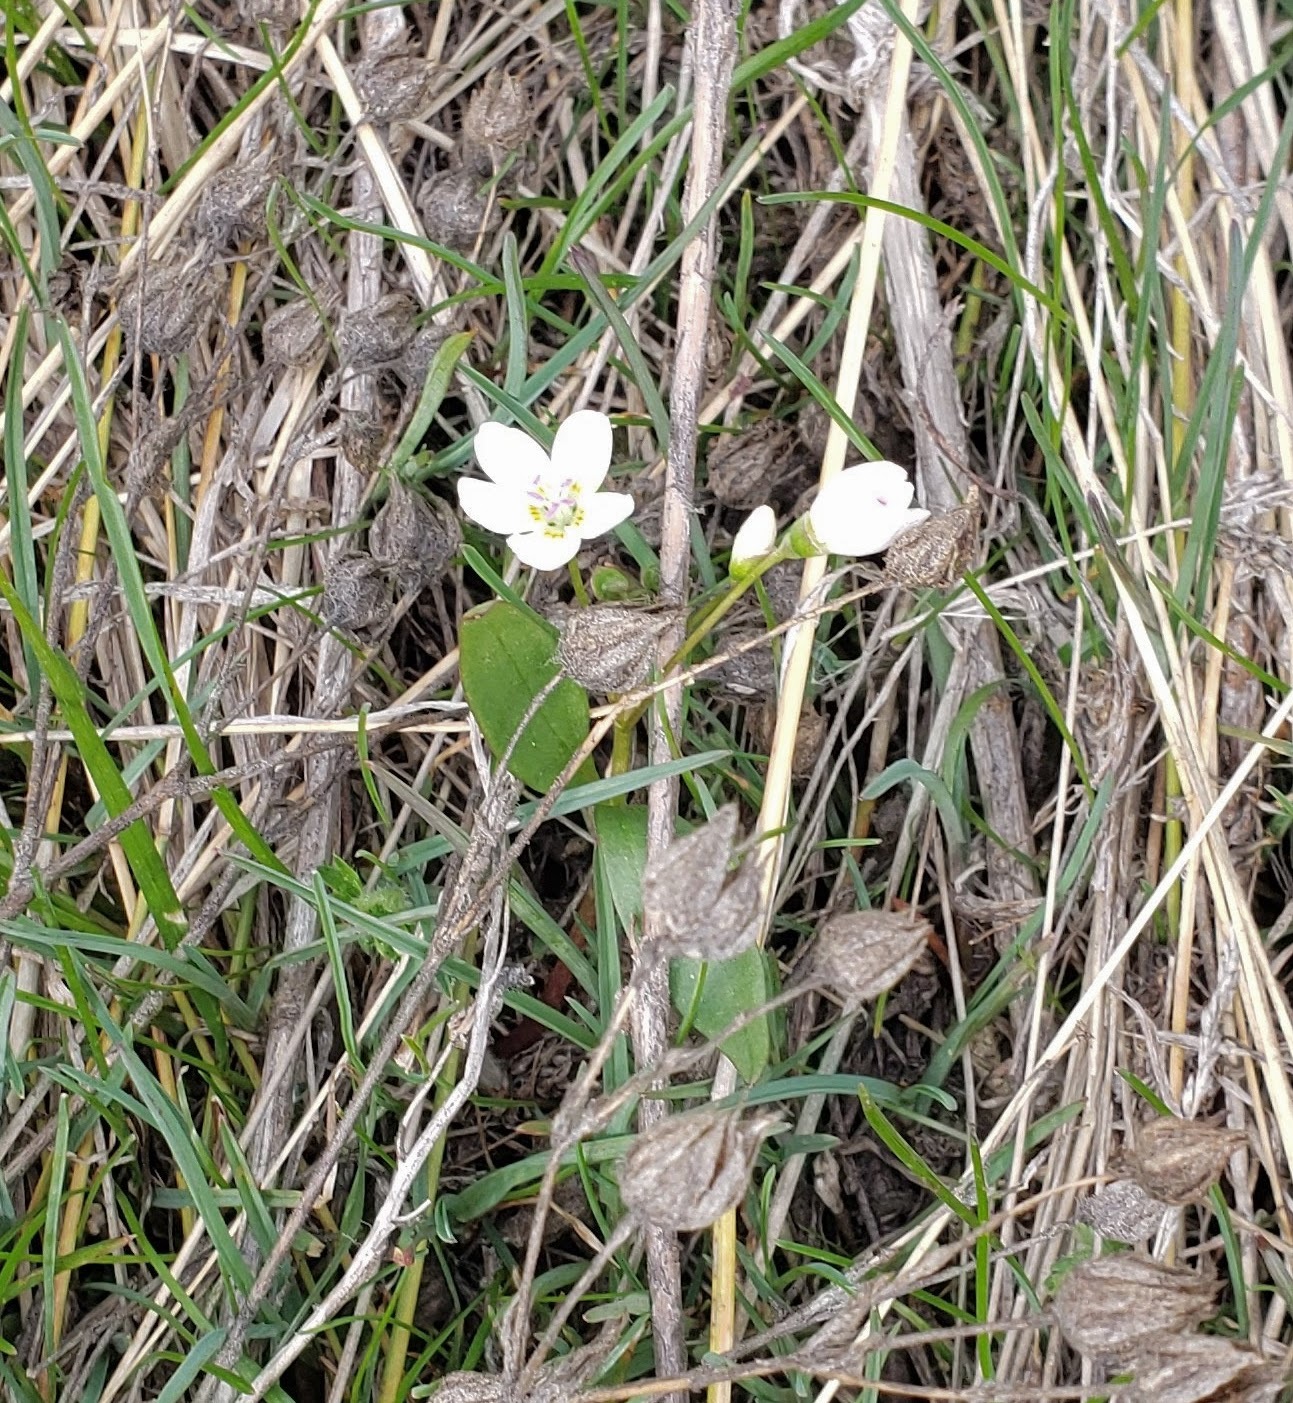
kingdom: Plantae
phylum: Tracheophyta
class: Magnoliopsida
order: Caryophyllales
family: Montiaceae
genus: Claytonia
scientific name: Claytonia lanceolata
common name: Western spring-beauty
